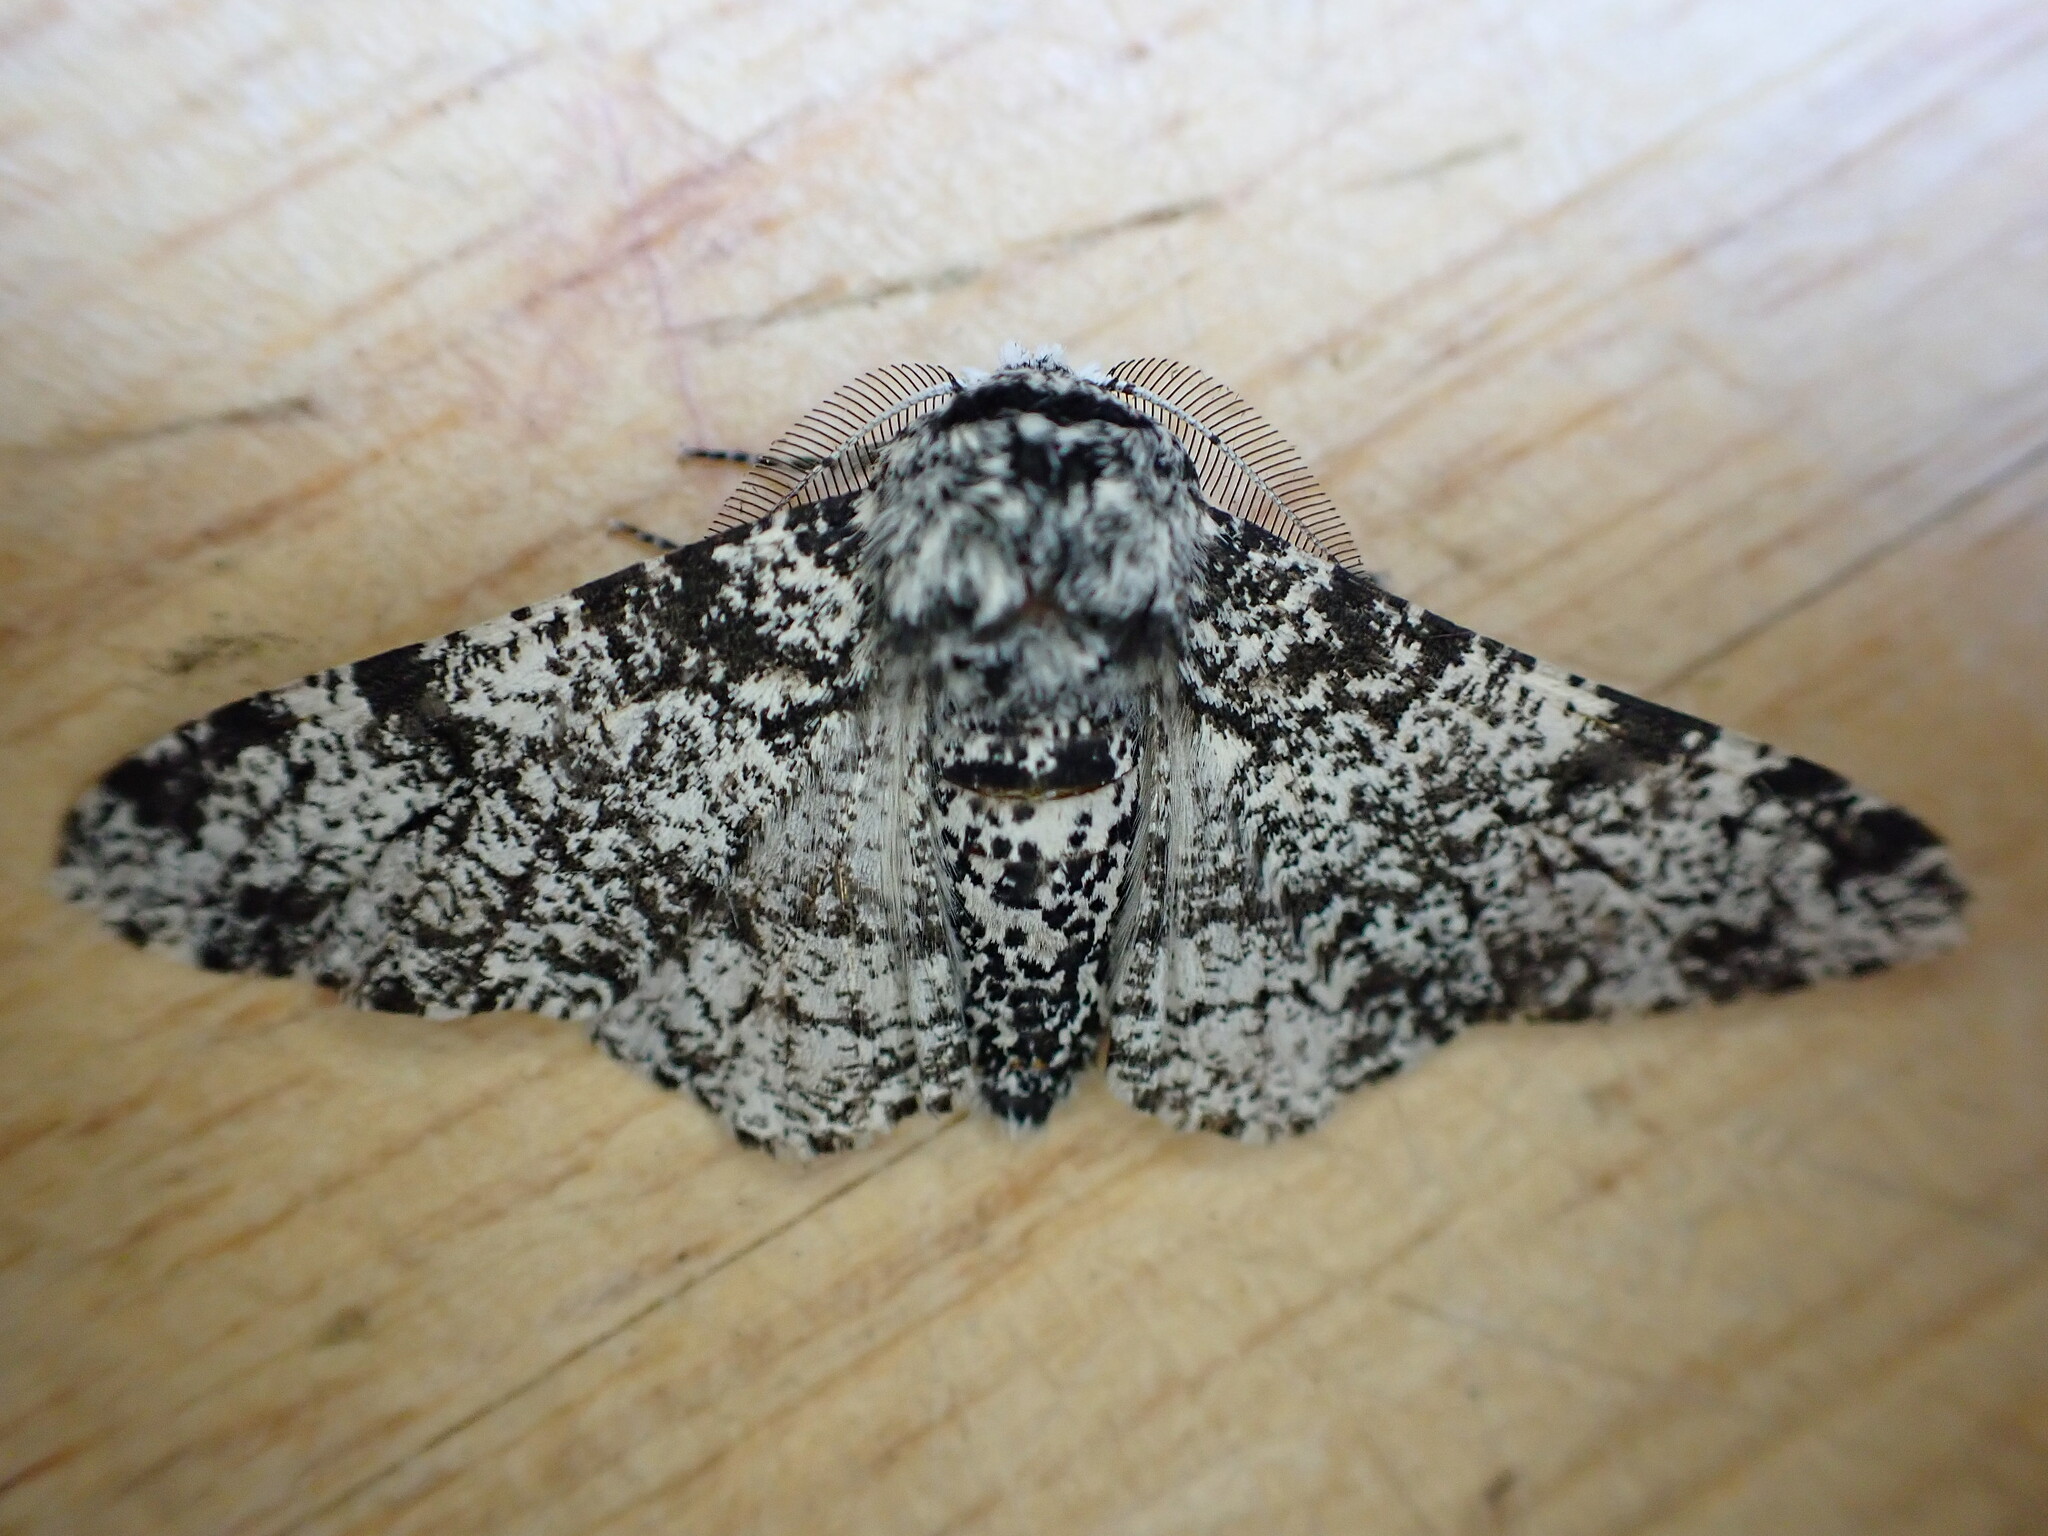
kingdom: Animalia
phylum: Arthropoda
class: Insecta
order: Lepidoptera
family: Geometridae
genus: Biston
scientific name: Biston betularia
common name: Peppered moth
